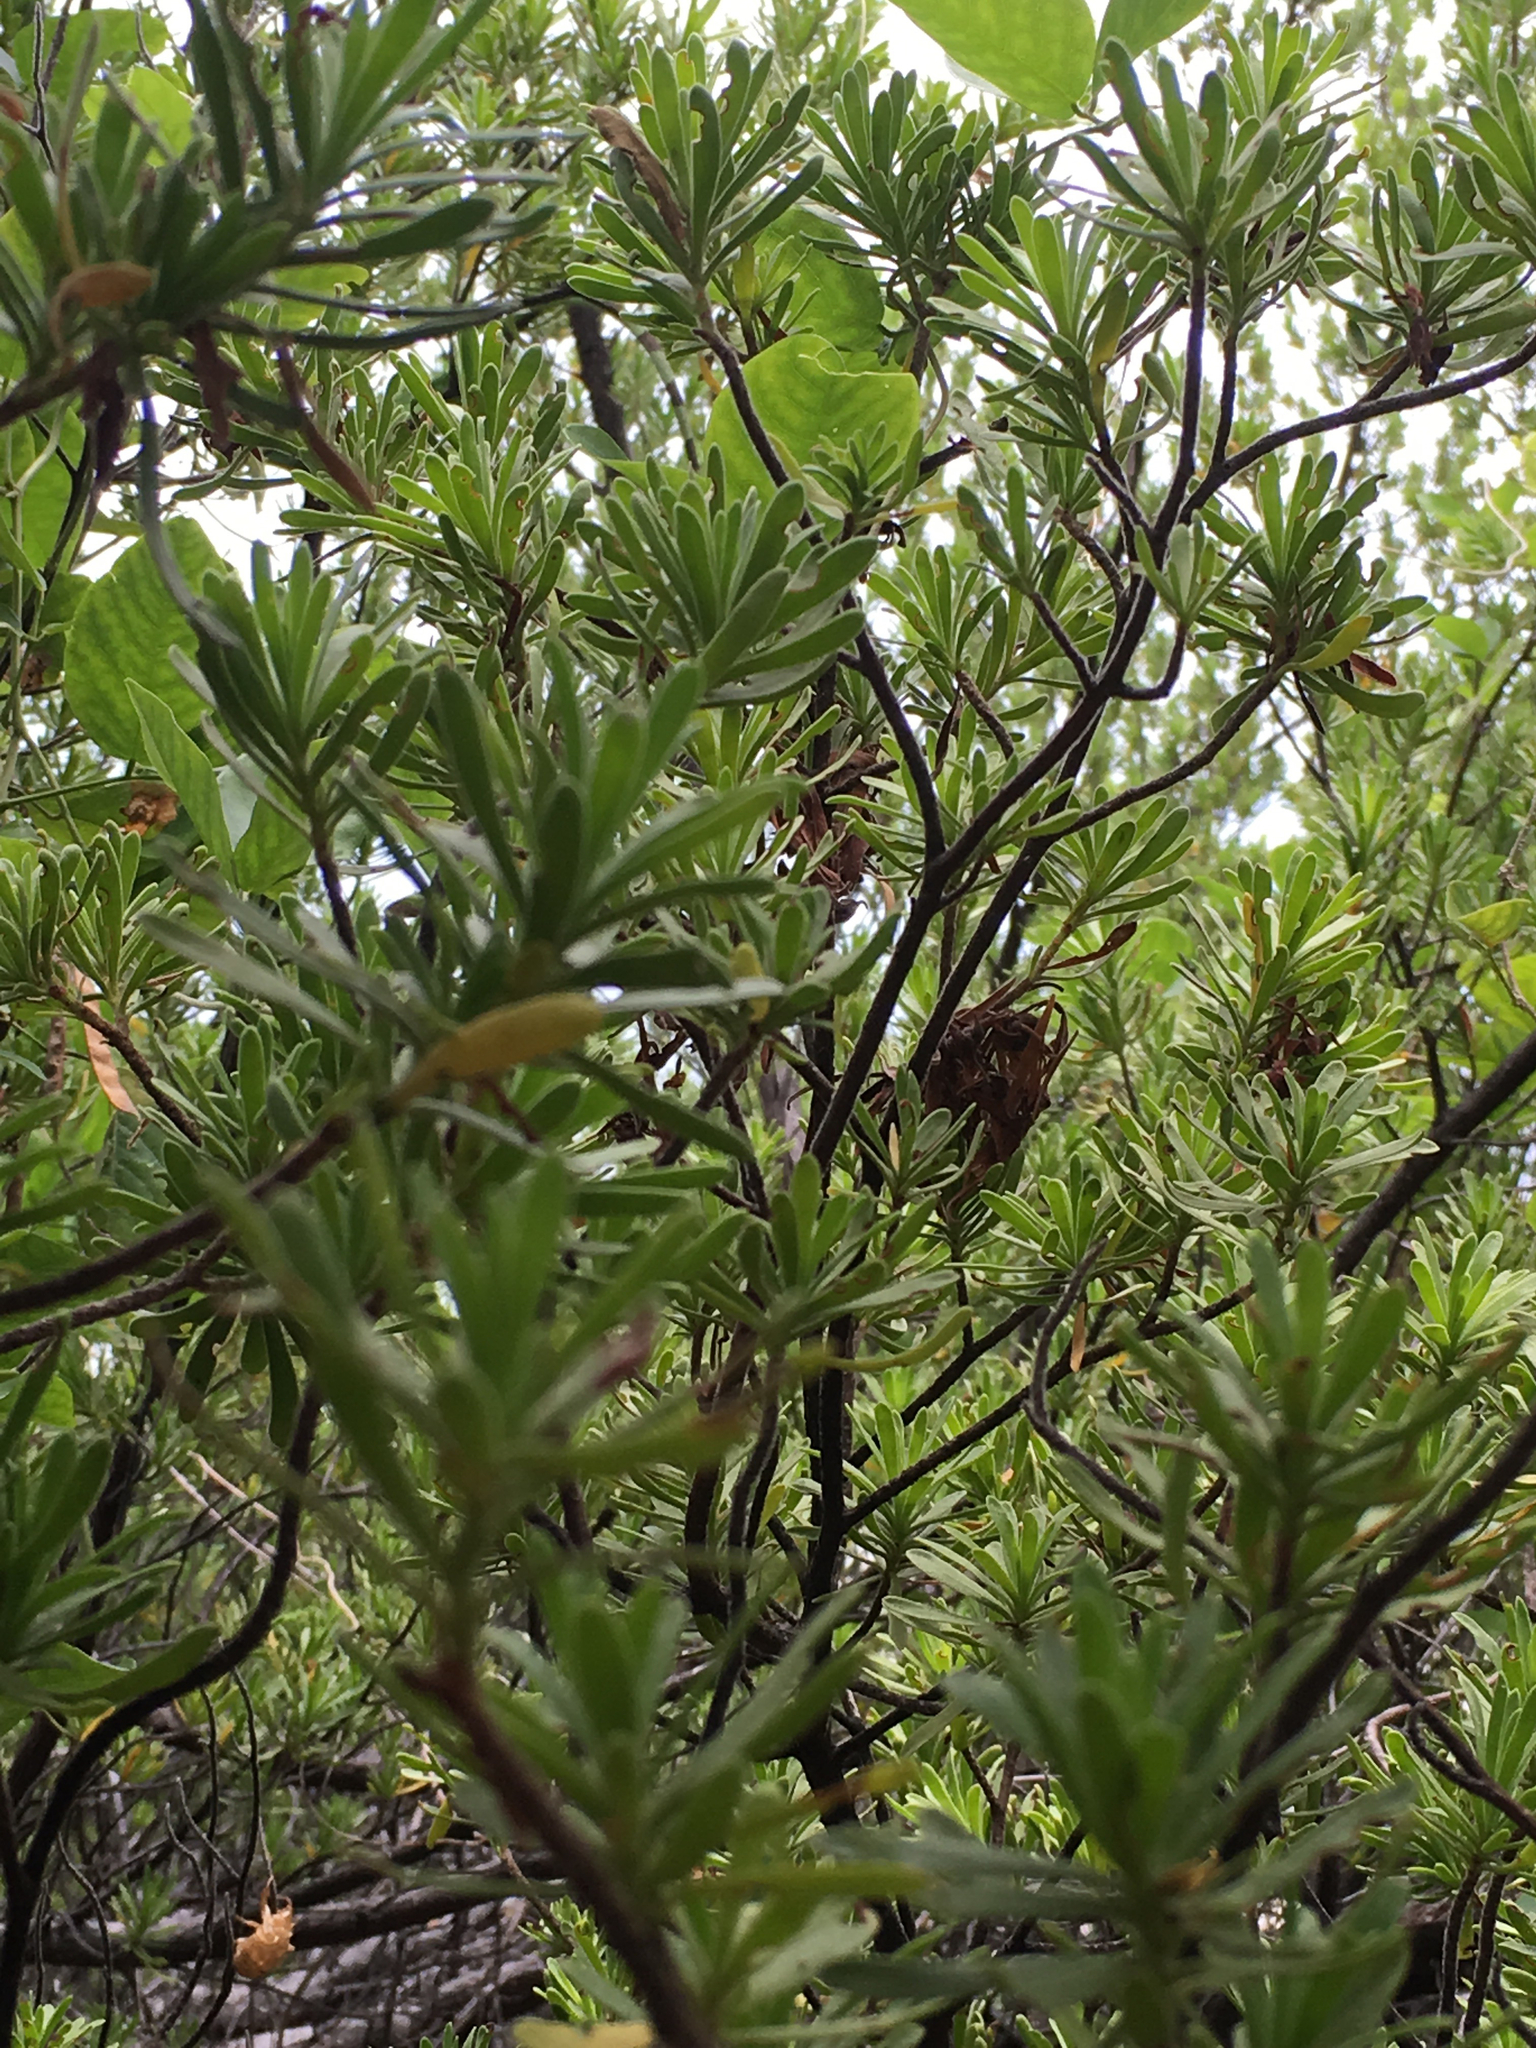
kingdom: Plantae
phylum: Tracheophyta
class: Magnoliopsida
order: Fabales
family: Surianaceae
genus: Suriana
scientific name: Suriana maritima
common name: Bay-cedar
